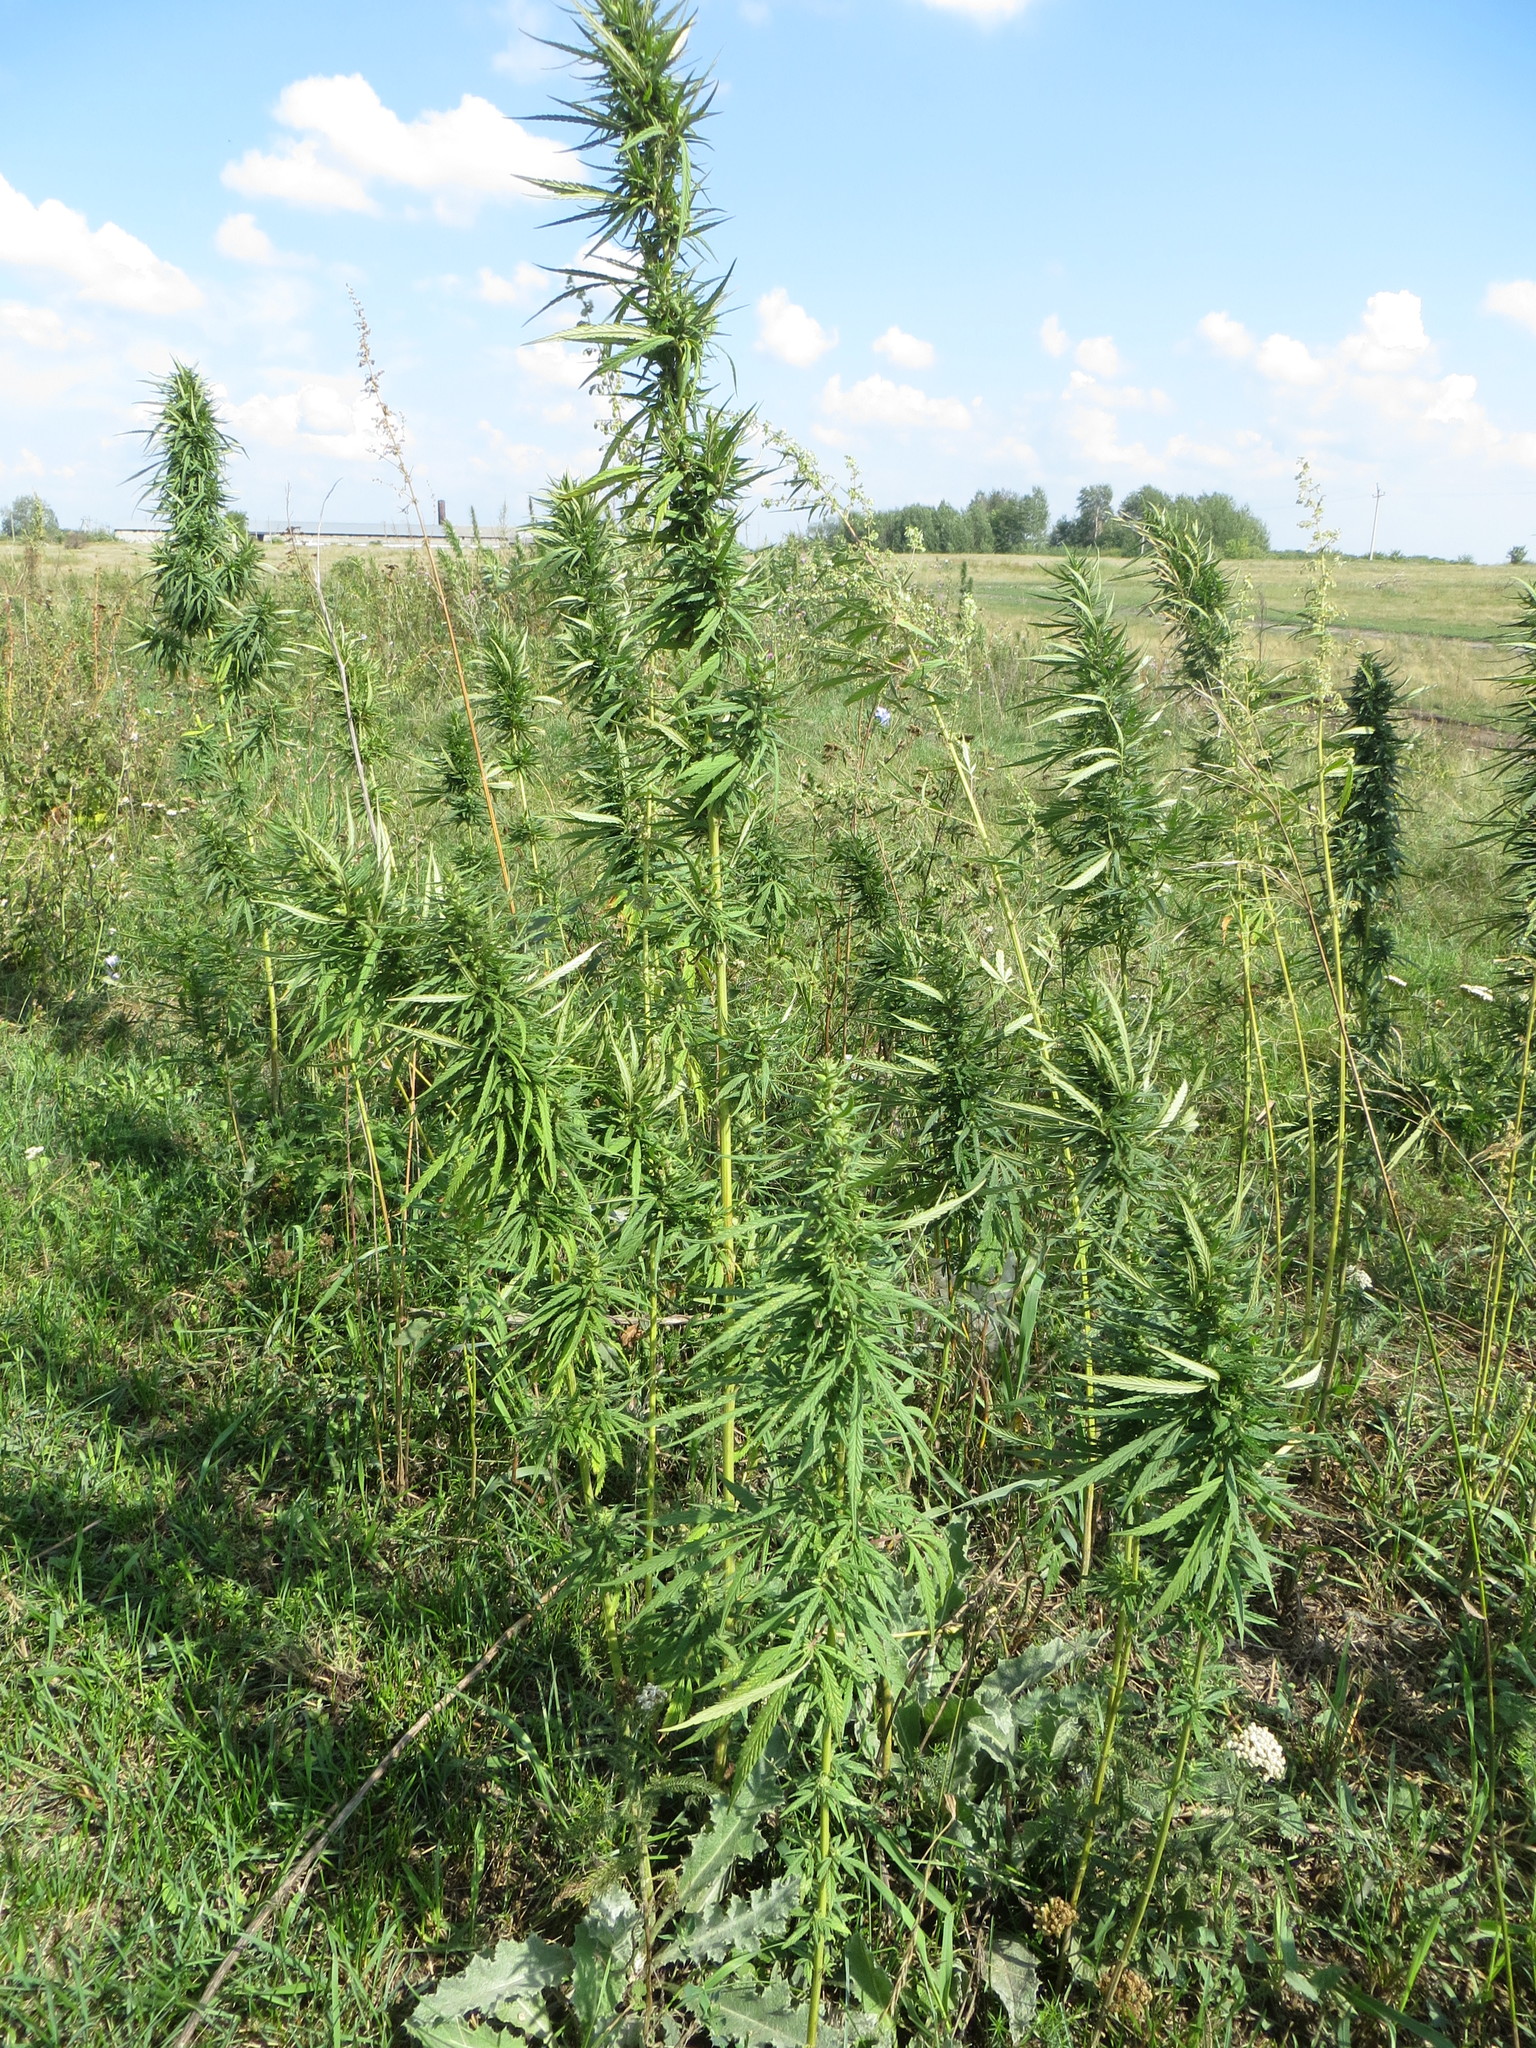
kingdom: Plantae
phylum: Tracheophyta
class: Magnoliopsida
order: Rosales
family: Cannabaceae
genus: Cannabis
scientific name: Cannabis sativa
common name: Hemp
